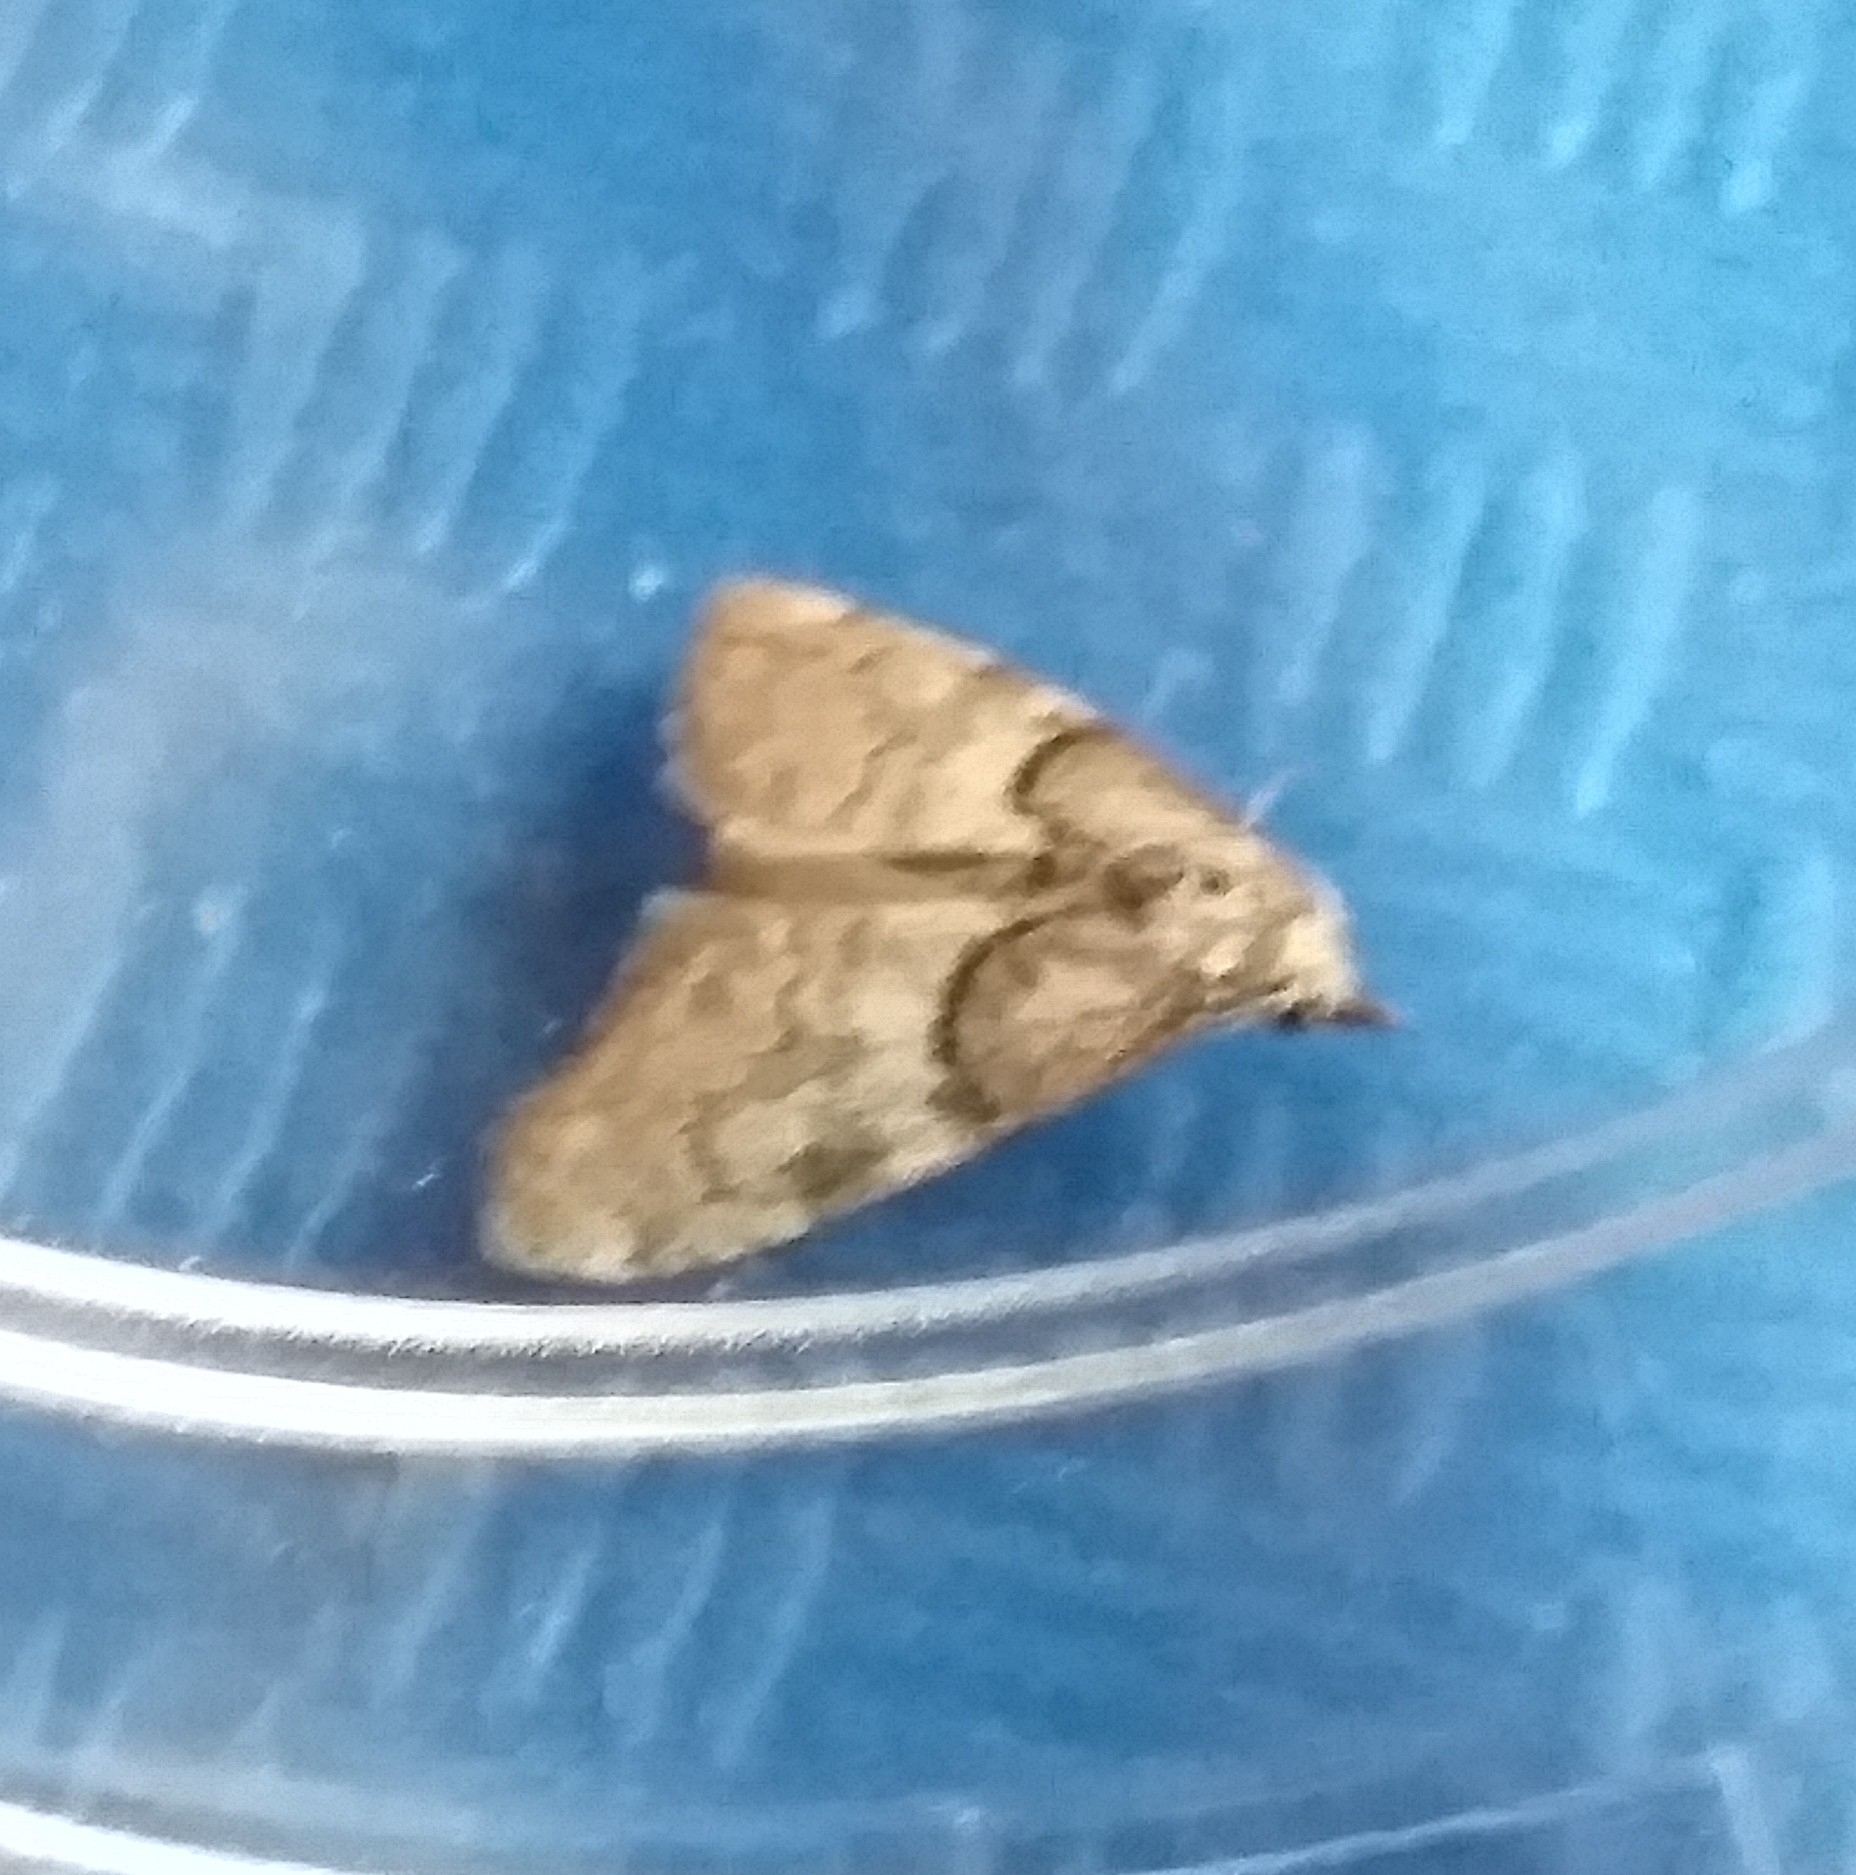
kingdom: Animalia
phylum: Arthropoda
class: Insecta
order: Lepidoptera
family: Nolidae
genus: Nola
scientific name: Nola cucullatella
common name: Short-cloaked moth
